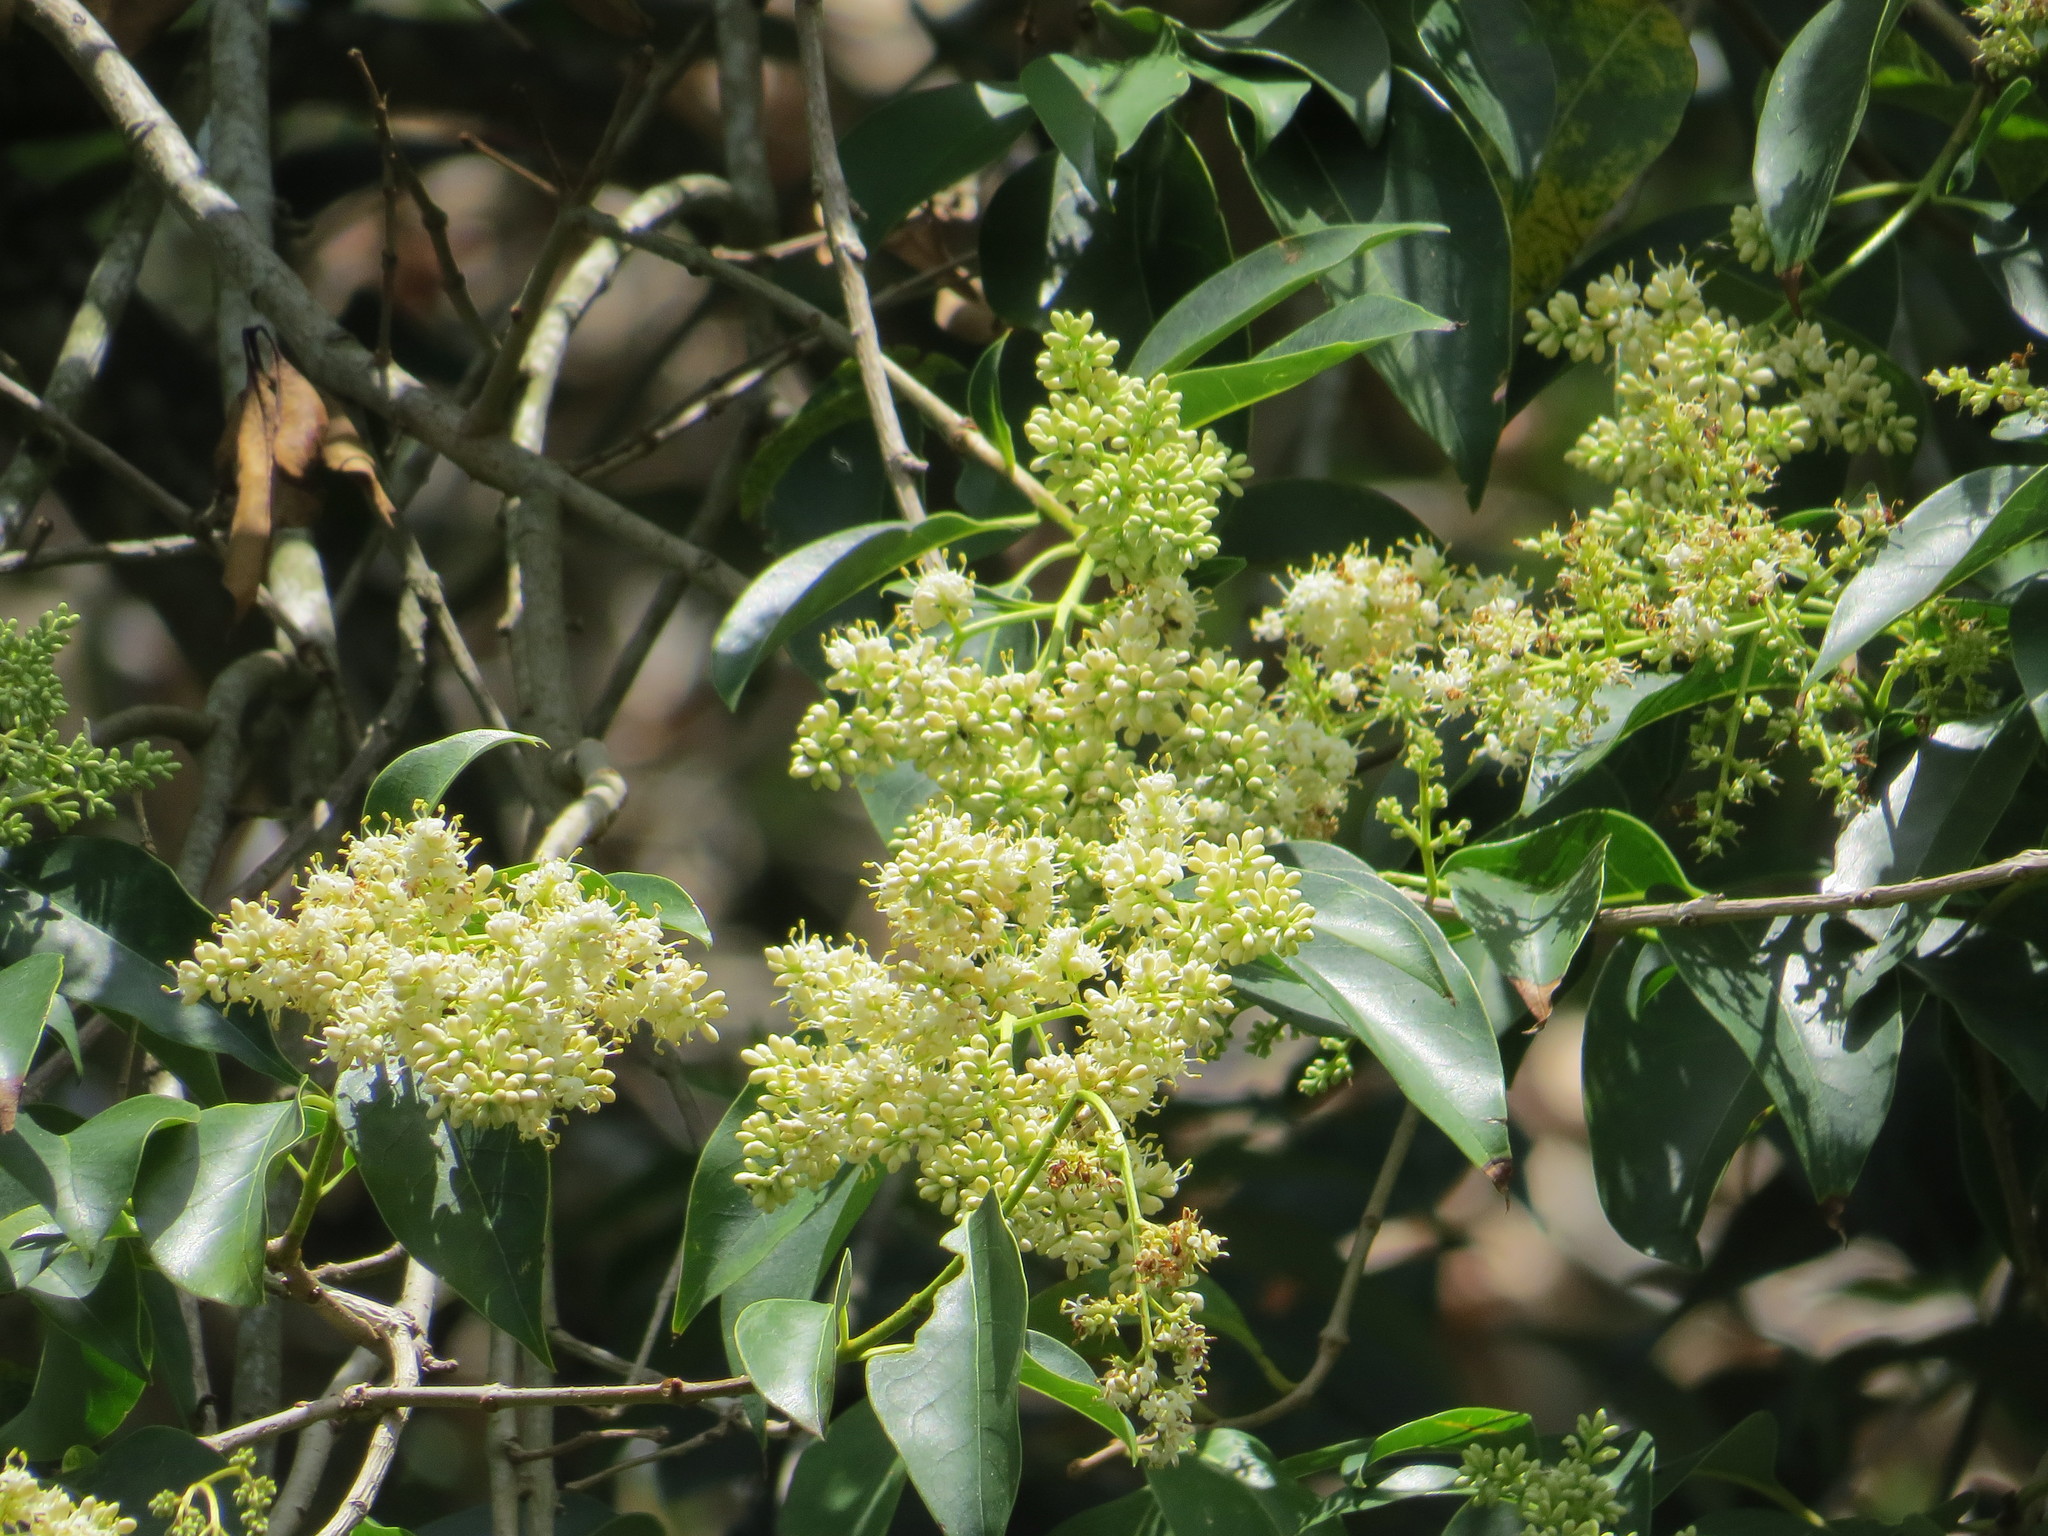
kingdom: Plantae
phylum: Tracheophyta
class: Magnoliopsida
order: Lamiales
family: Oleaceae
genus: Ligustrum
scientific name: Ligustrum lucidum
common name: Glossy privet
